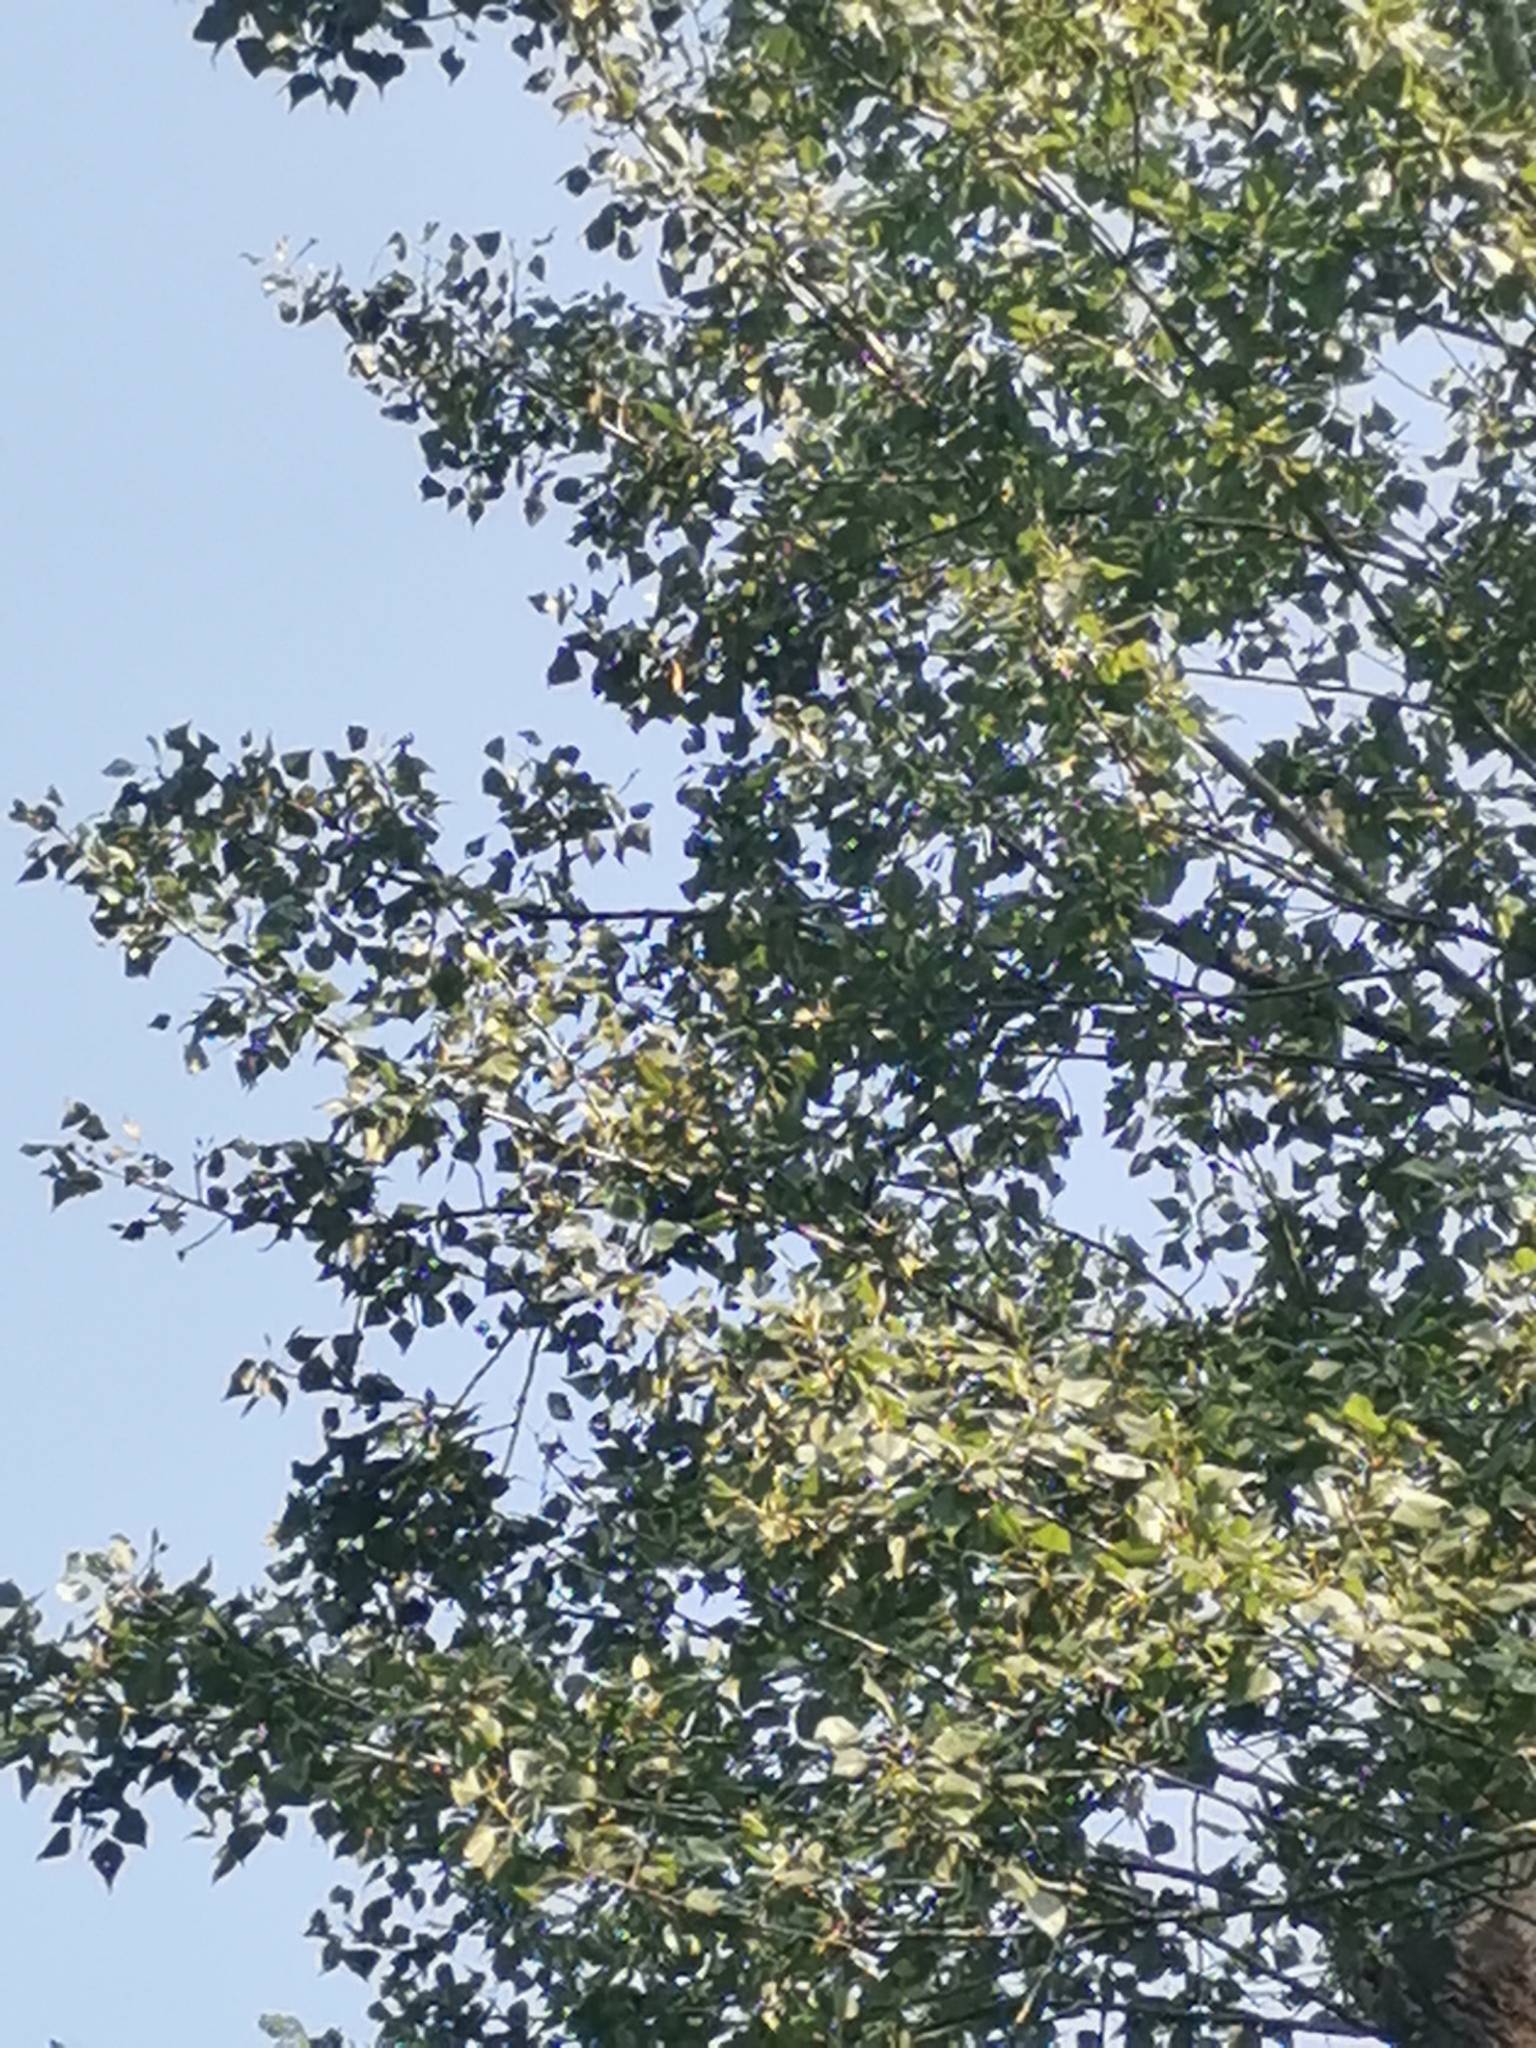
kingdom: Plantae
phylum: Tracheophyta
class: Magnoliopsida
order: Malpighiales
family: Salicaceae
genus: Populus
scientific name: Populus nigra
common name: Black poplar
